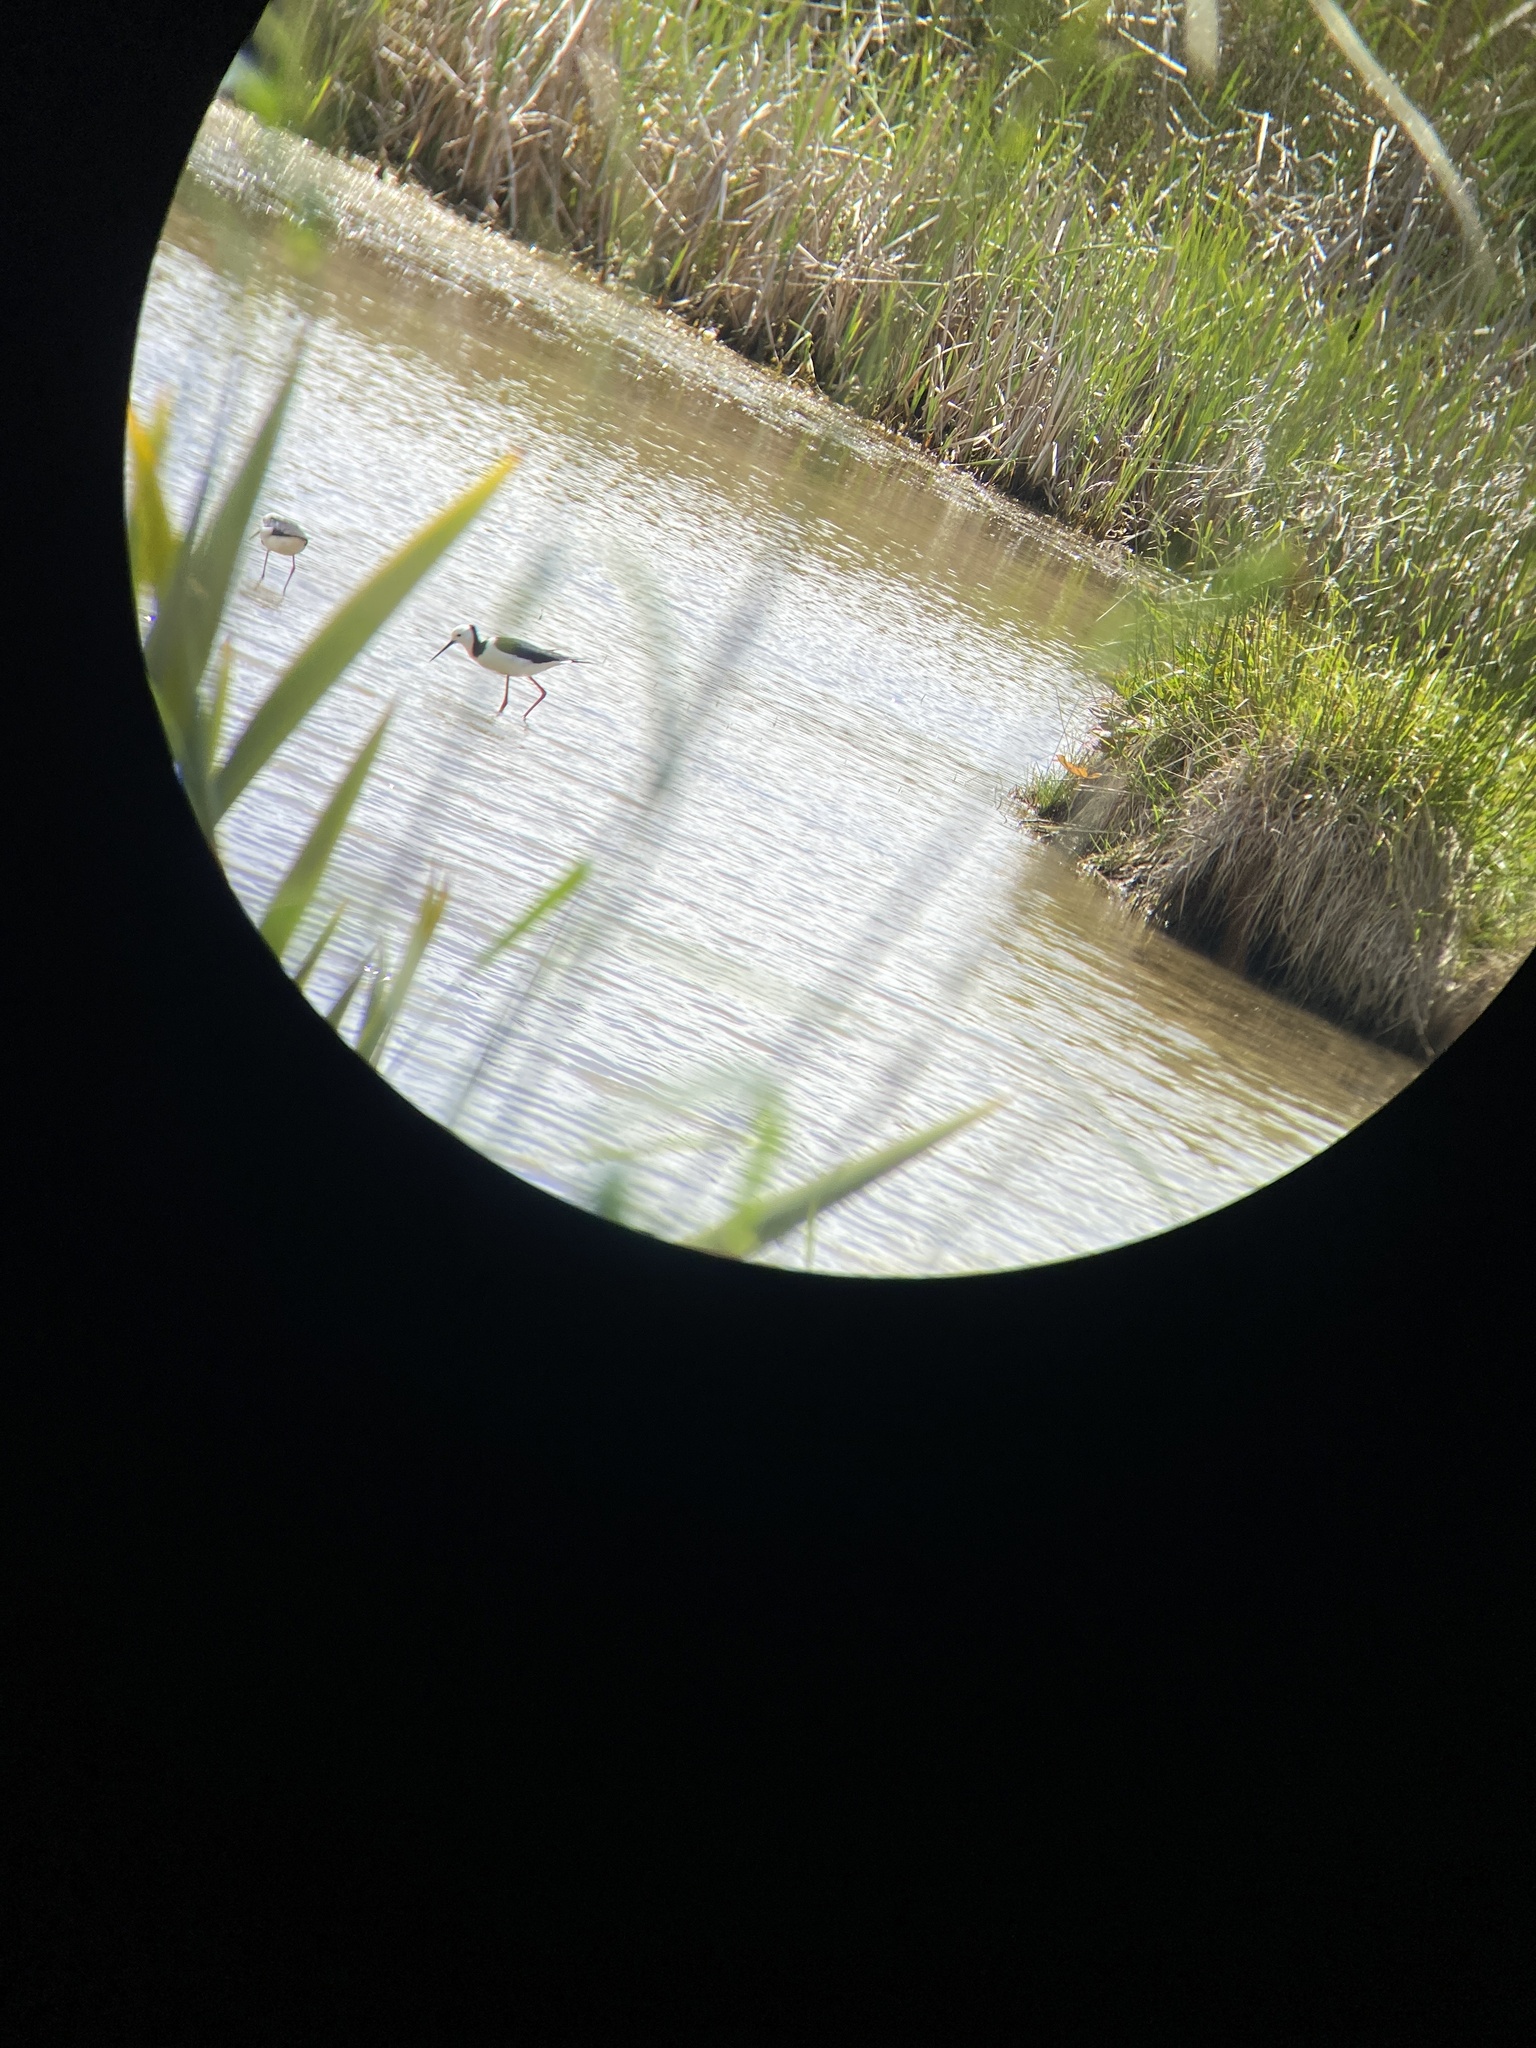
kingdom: Animalia
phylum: Chordata
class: Aves
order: Charadriiformes
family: Recurvirostridae
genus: Himantopus
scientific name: Himantopus leucocephalus
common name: White-headed stilt
